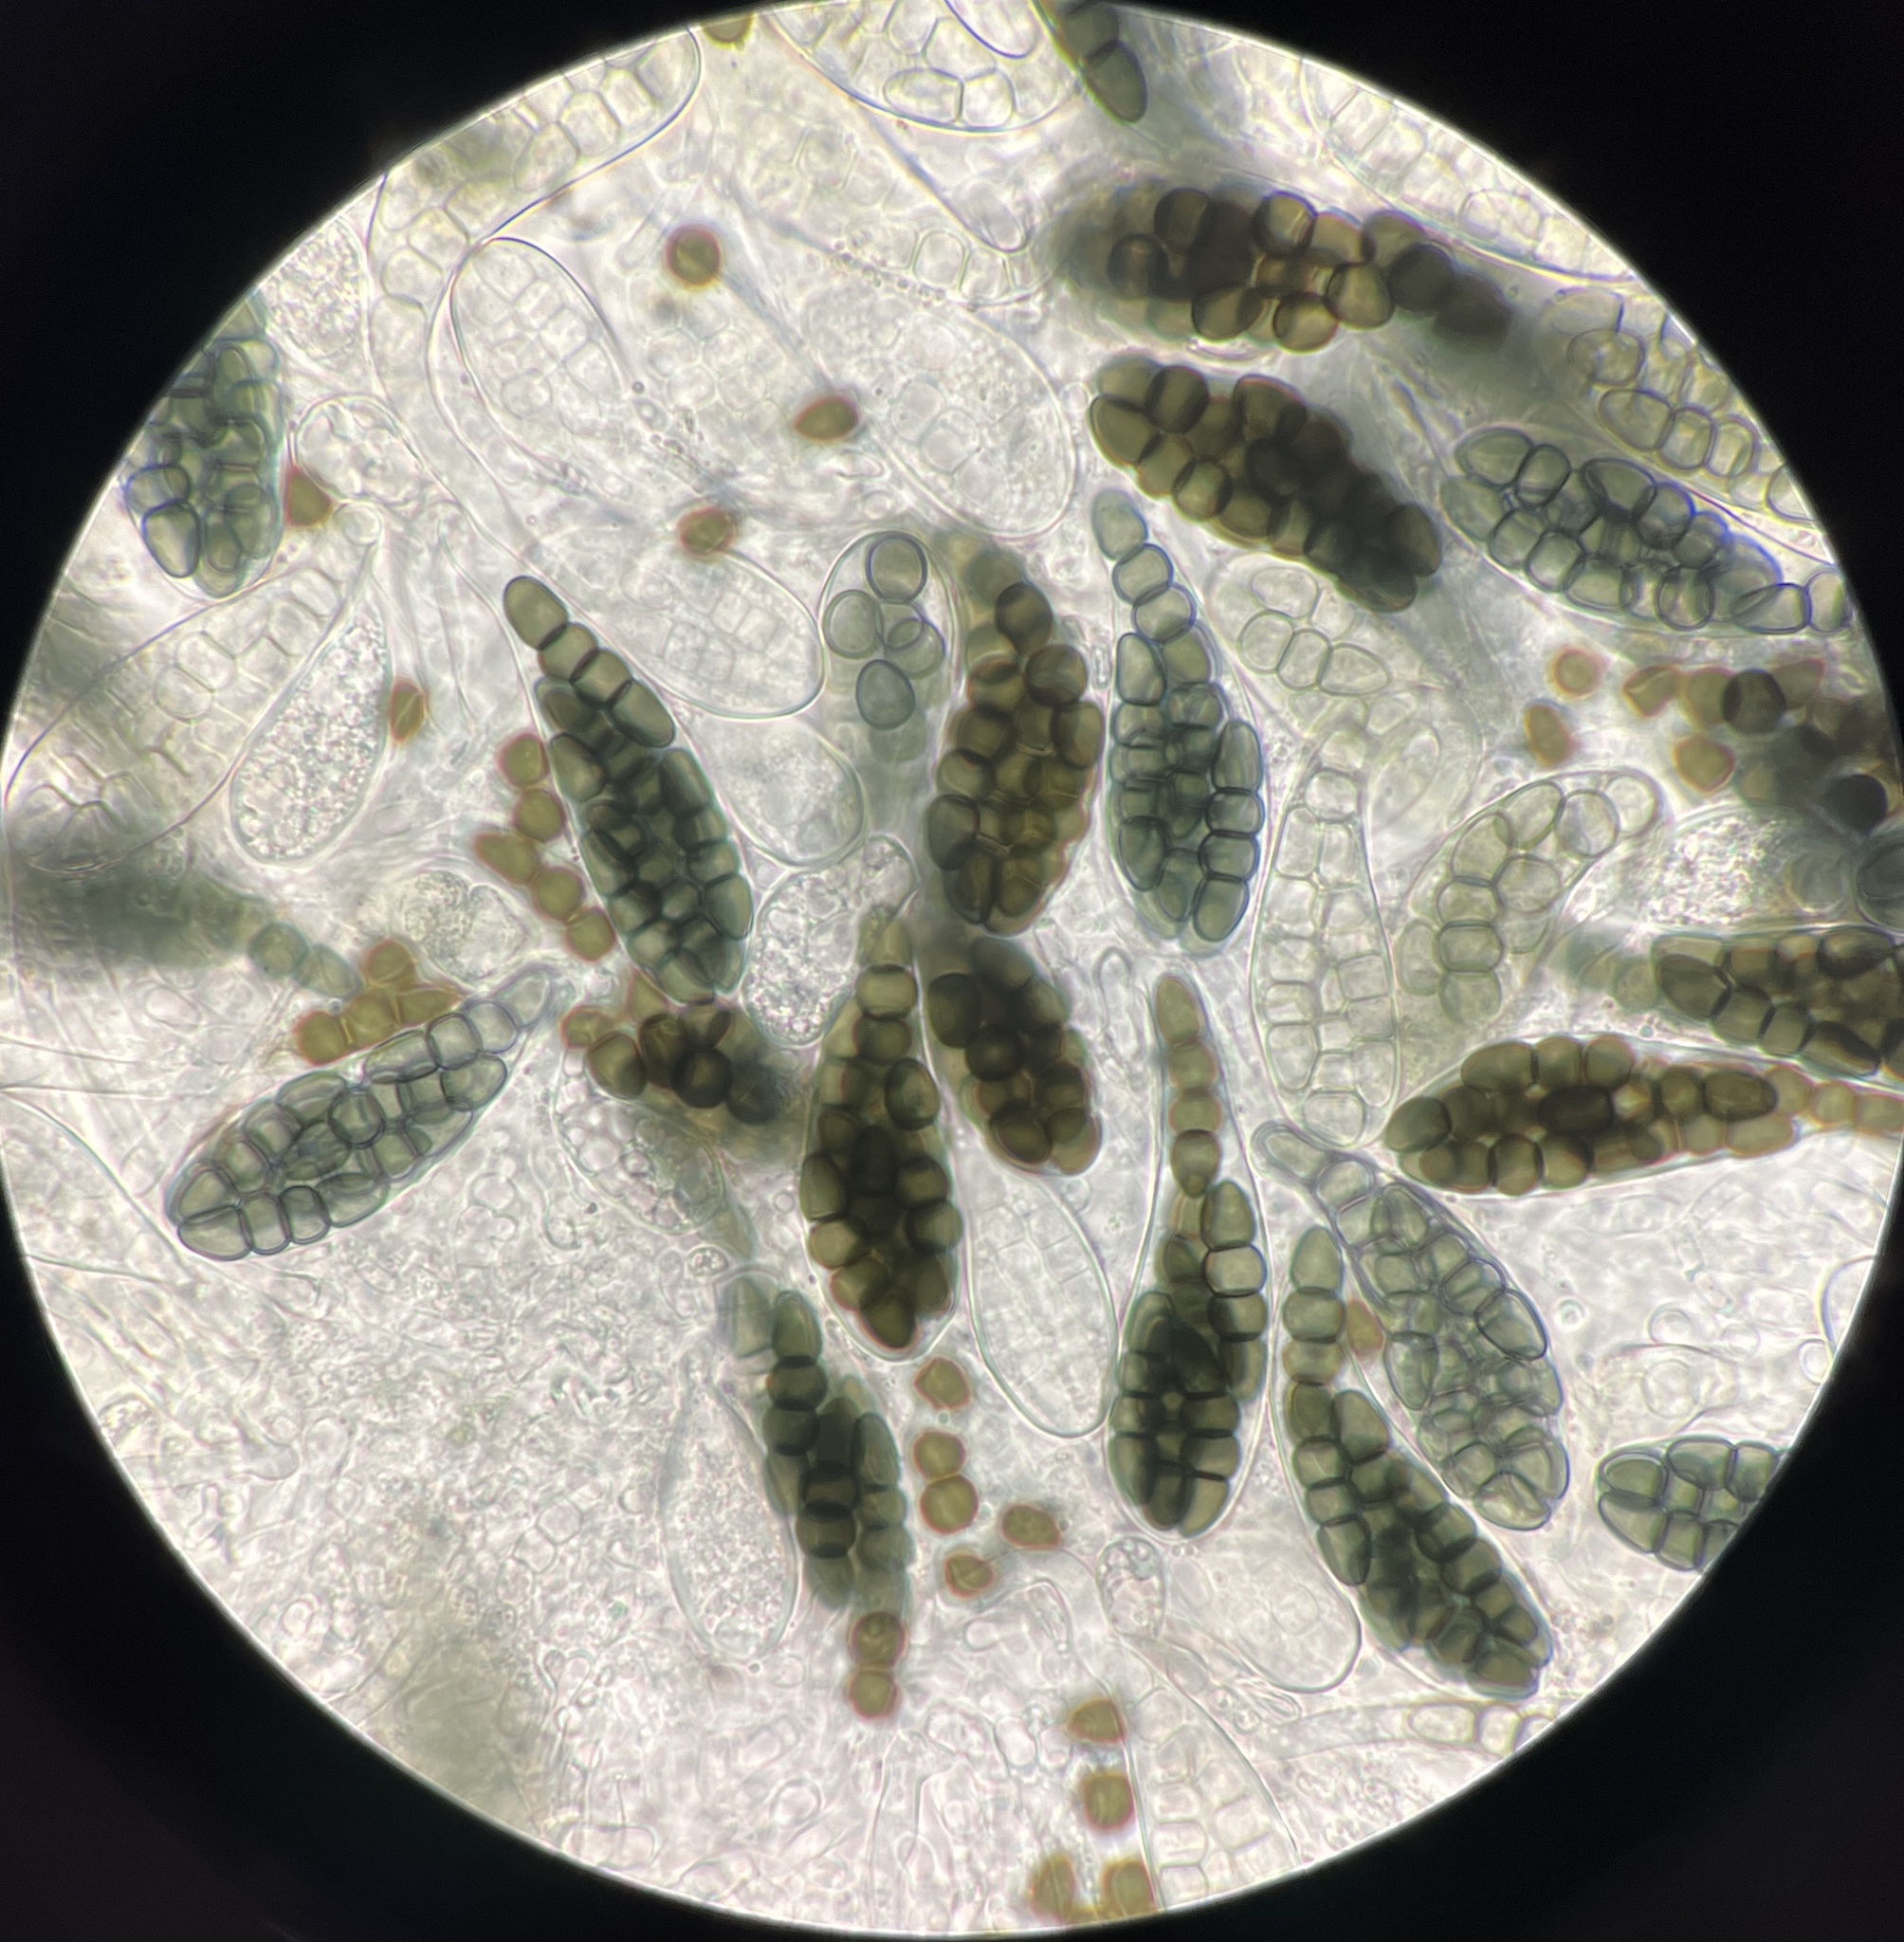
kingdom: Fungi
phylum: Ascomycota
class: Dothideomycetes
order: Pleosporales
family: Sporormiaceae
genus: Preussia
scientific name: Preussia typharum
